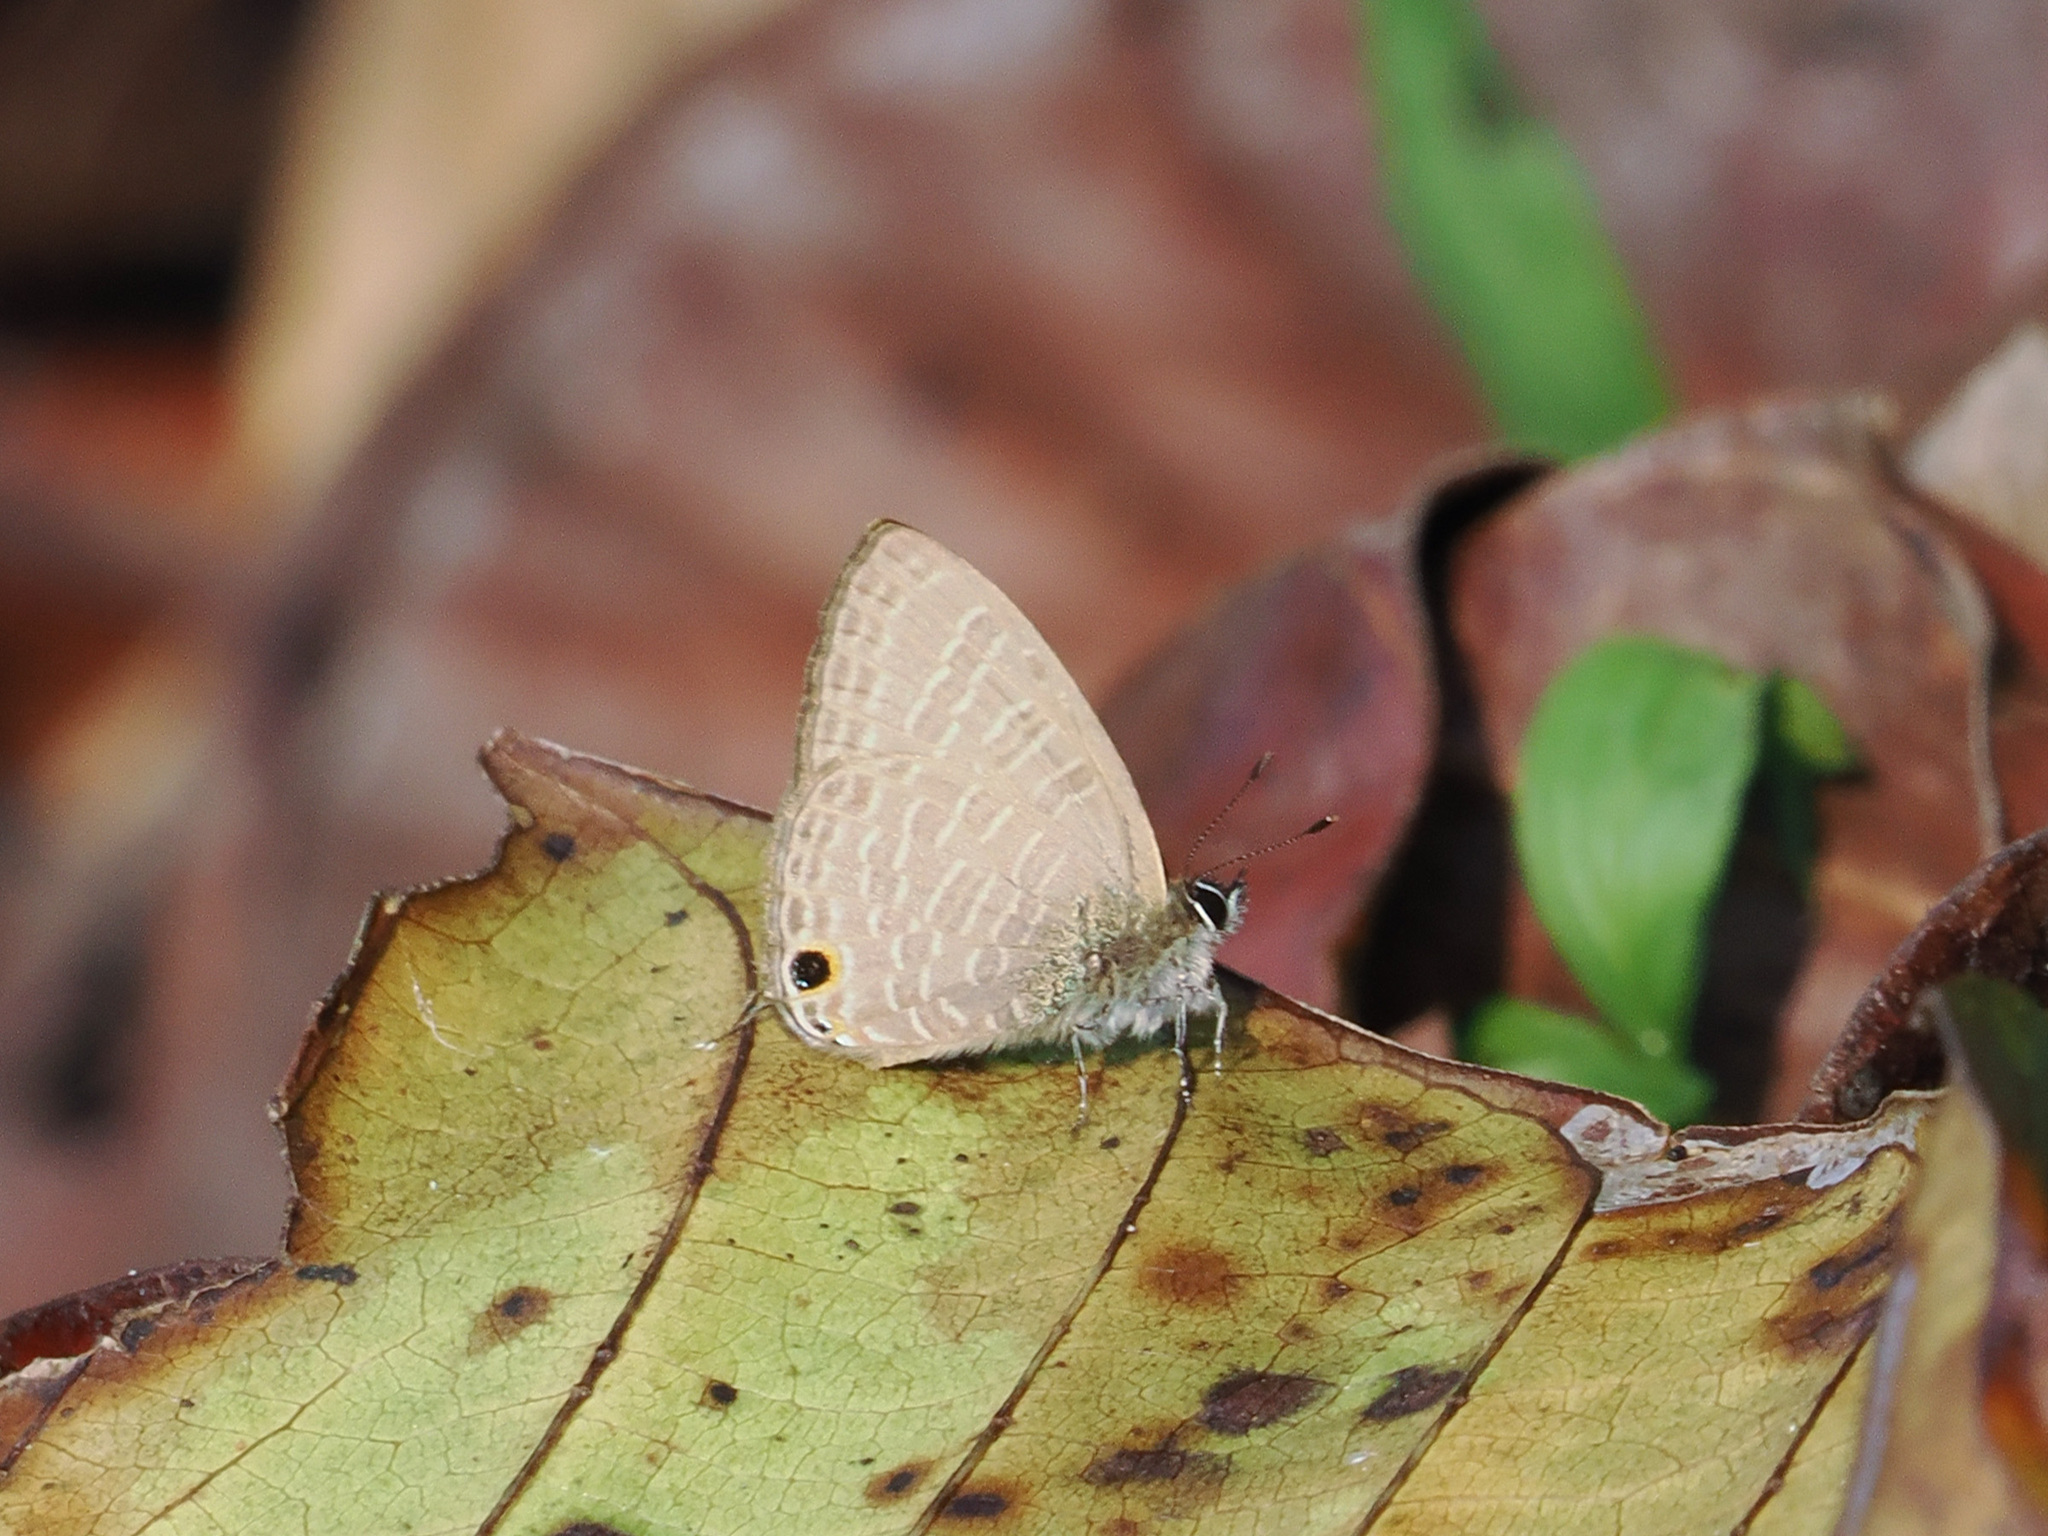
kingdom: Animalia
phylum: Arthropoda
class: Insecta
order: Lepidoptera
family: Lycaenidae
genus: Nacaduba
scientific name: Nacaduba beroe
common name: Opaque sixline blue
